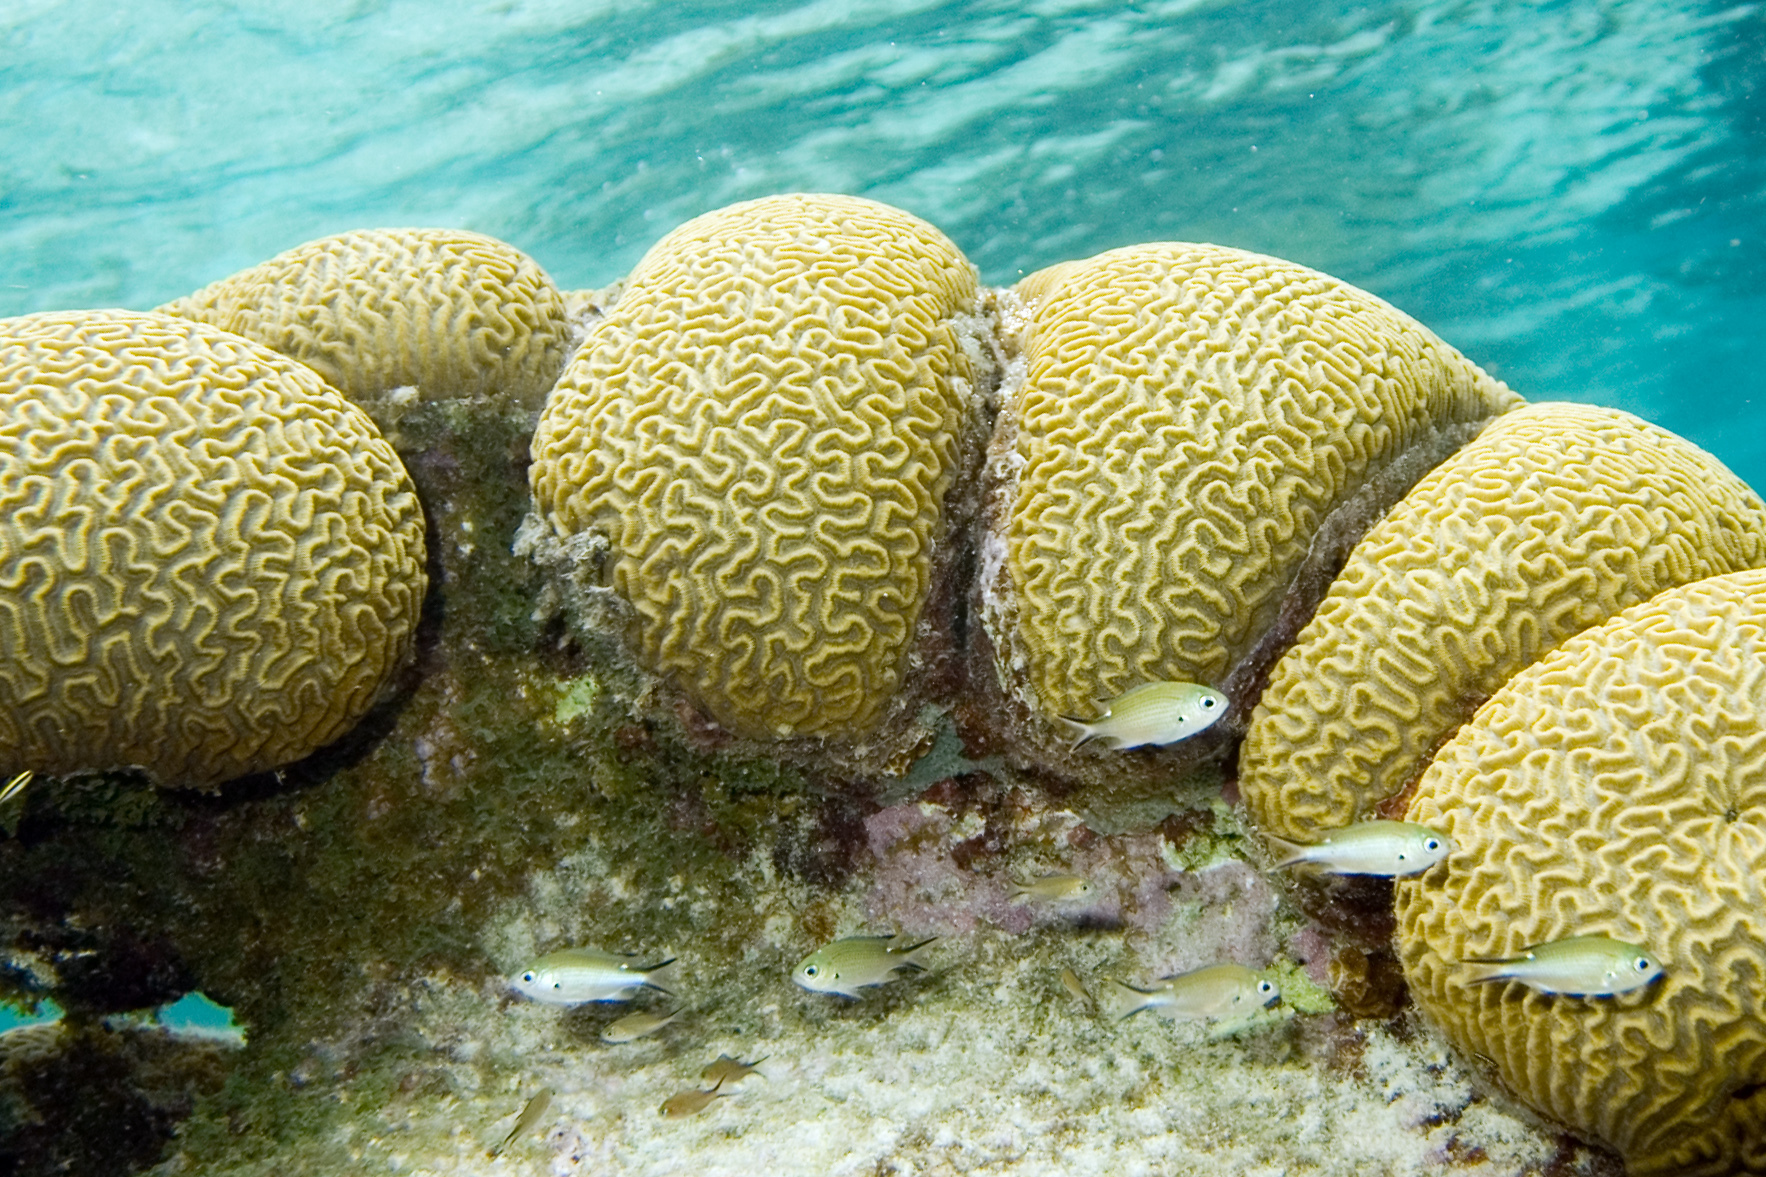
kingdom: Animalia
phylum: Cnidaria
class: Anthozoa
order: Scleractinia
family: Faviidae
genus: Pseudodiploria
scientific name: Pseudodiploria strigosa
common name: Symmetrical brain coral
